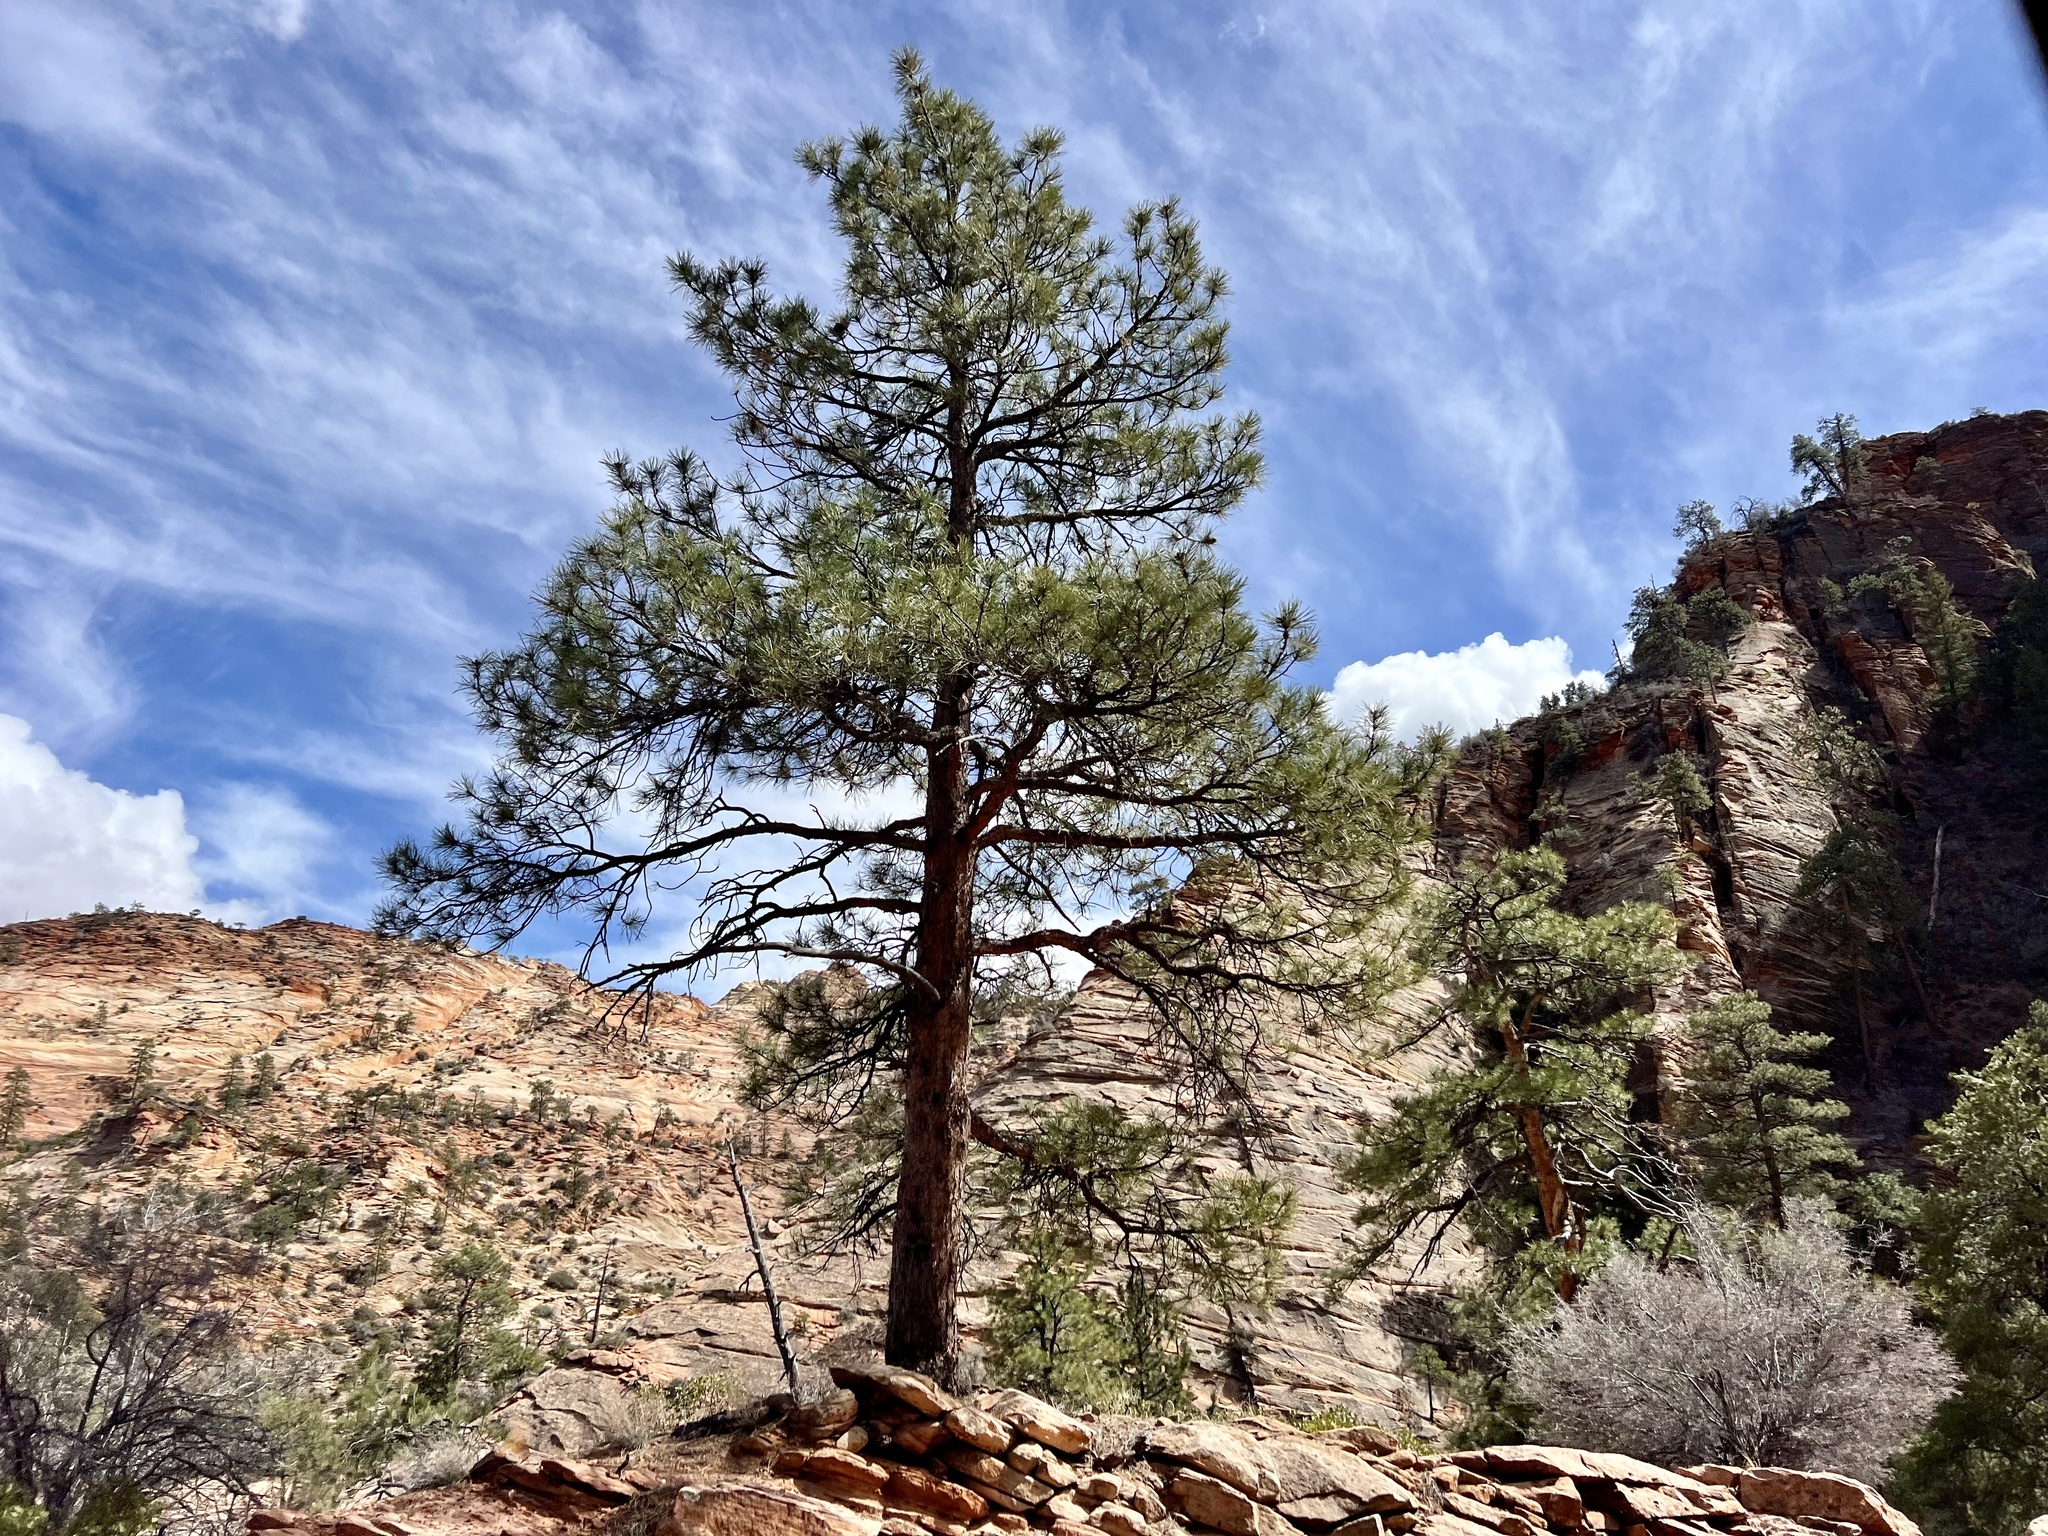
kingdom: Plantae
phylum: Tracheophyta
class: Pinopsida
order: Pinales
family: Pinaceae
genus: Pinus
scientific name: Pinus ponderosa
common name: Western yellow-pine
